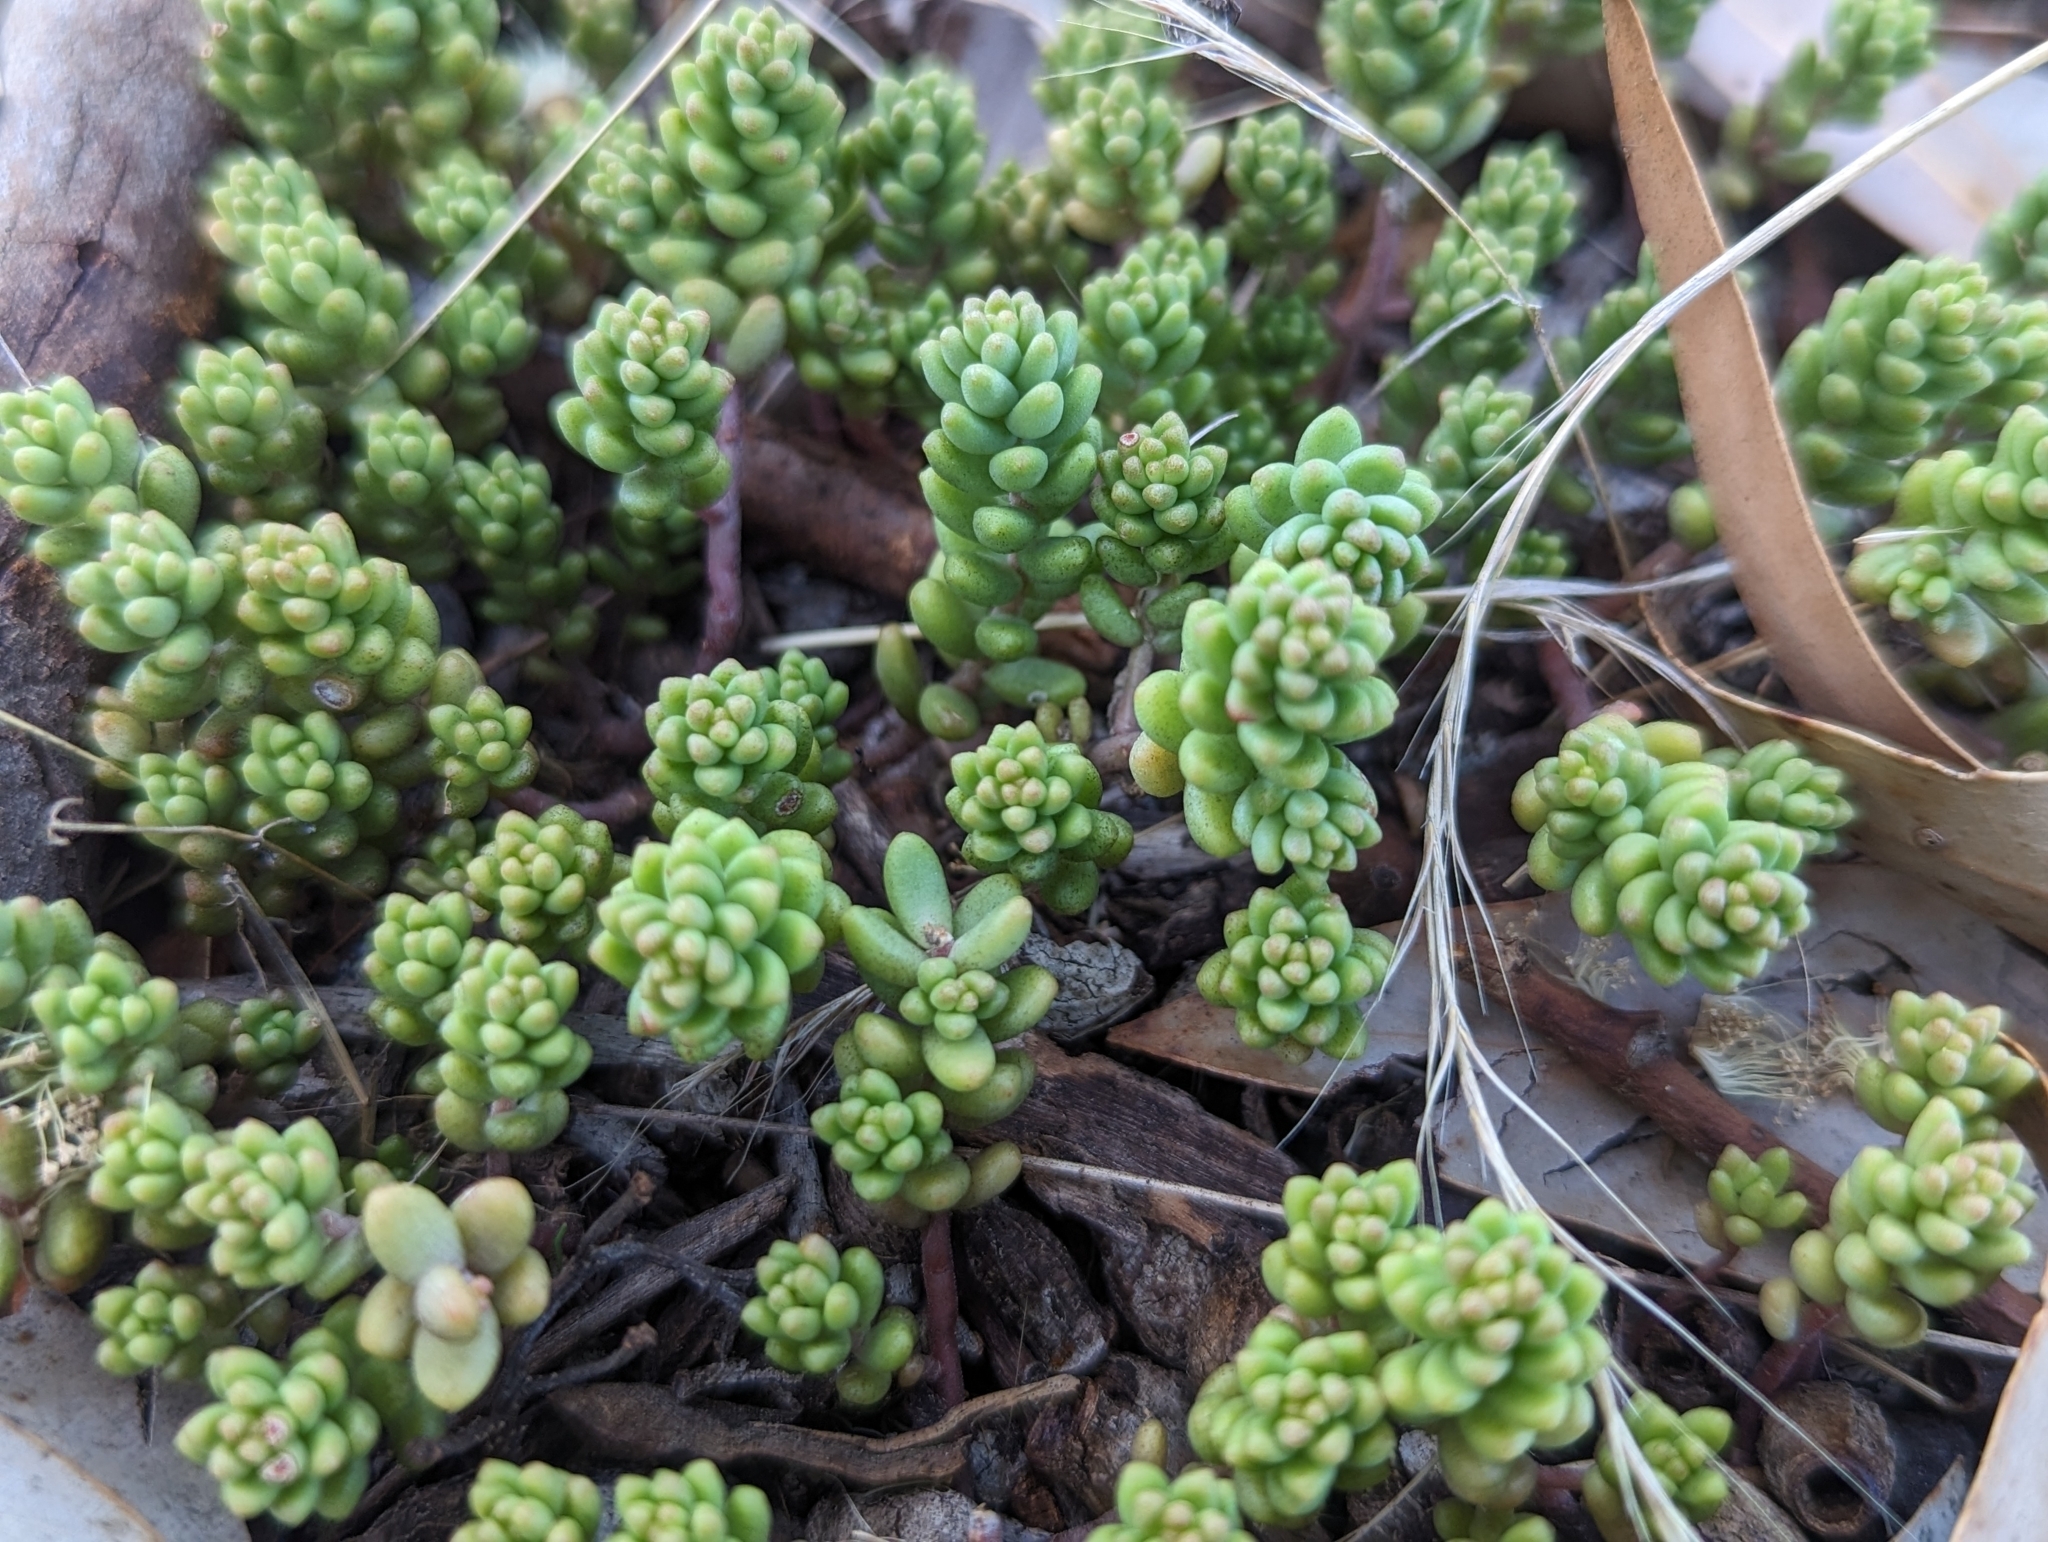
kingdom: Plantae
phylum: Tracheophyta
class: Magnoliopsida
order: Saxifragales
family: Crassulaceae
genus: Sedum
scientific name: Sedum album
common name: White stonecrop
